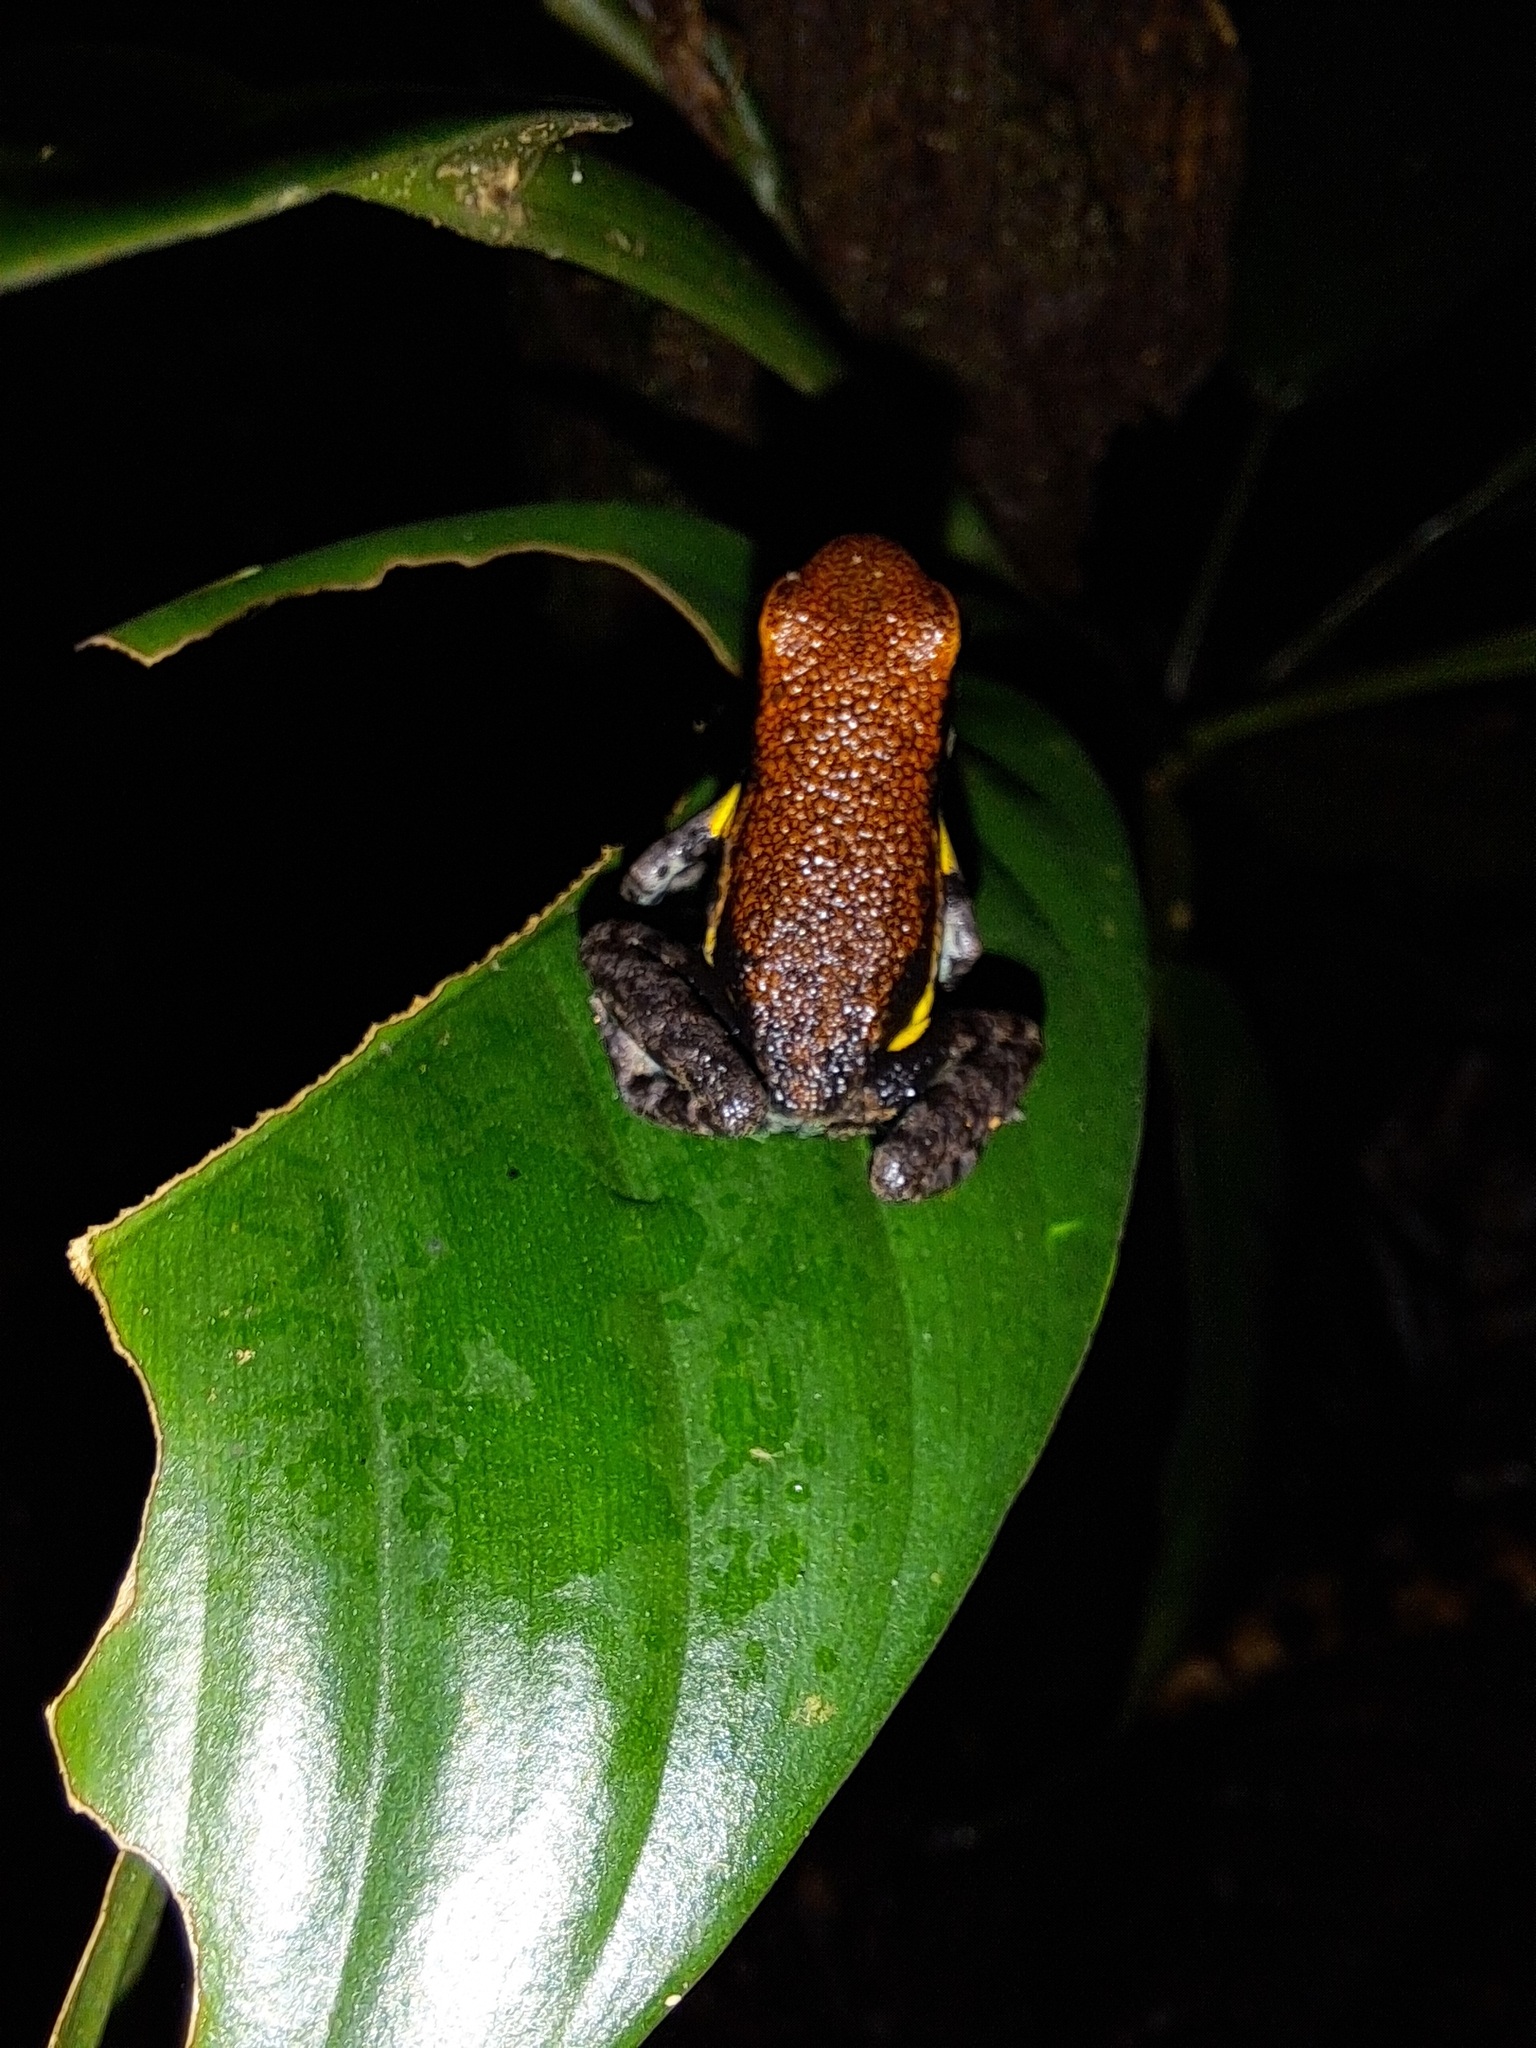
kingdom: Animalia
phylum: Chordata
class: Amphibia
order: Anura
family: Dendrobatidae
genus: Ameerega
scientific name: Ameerega bilinguis
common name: Ecuadorean poison frog
